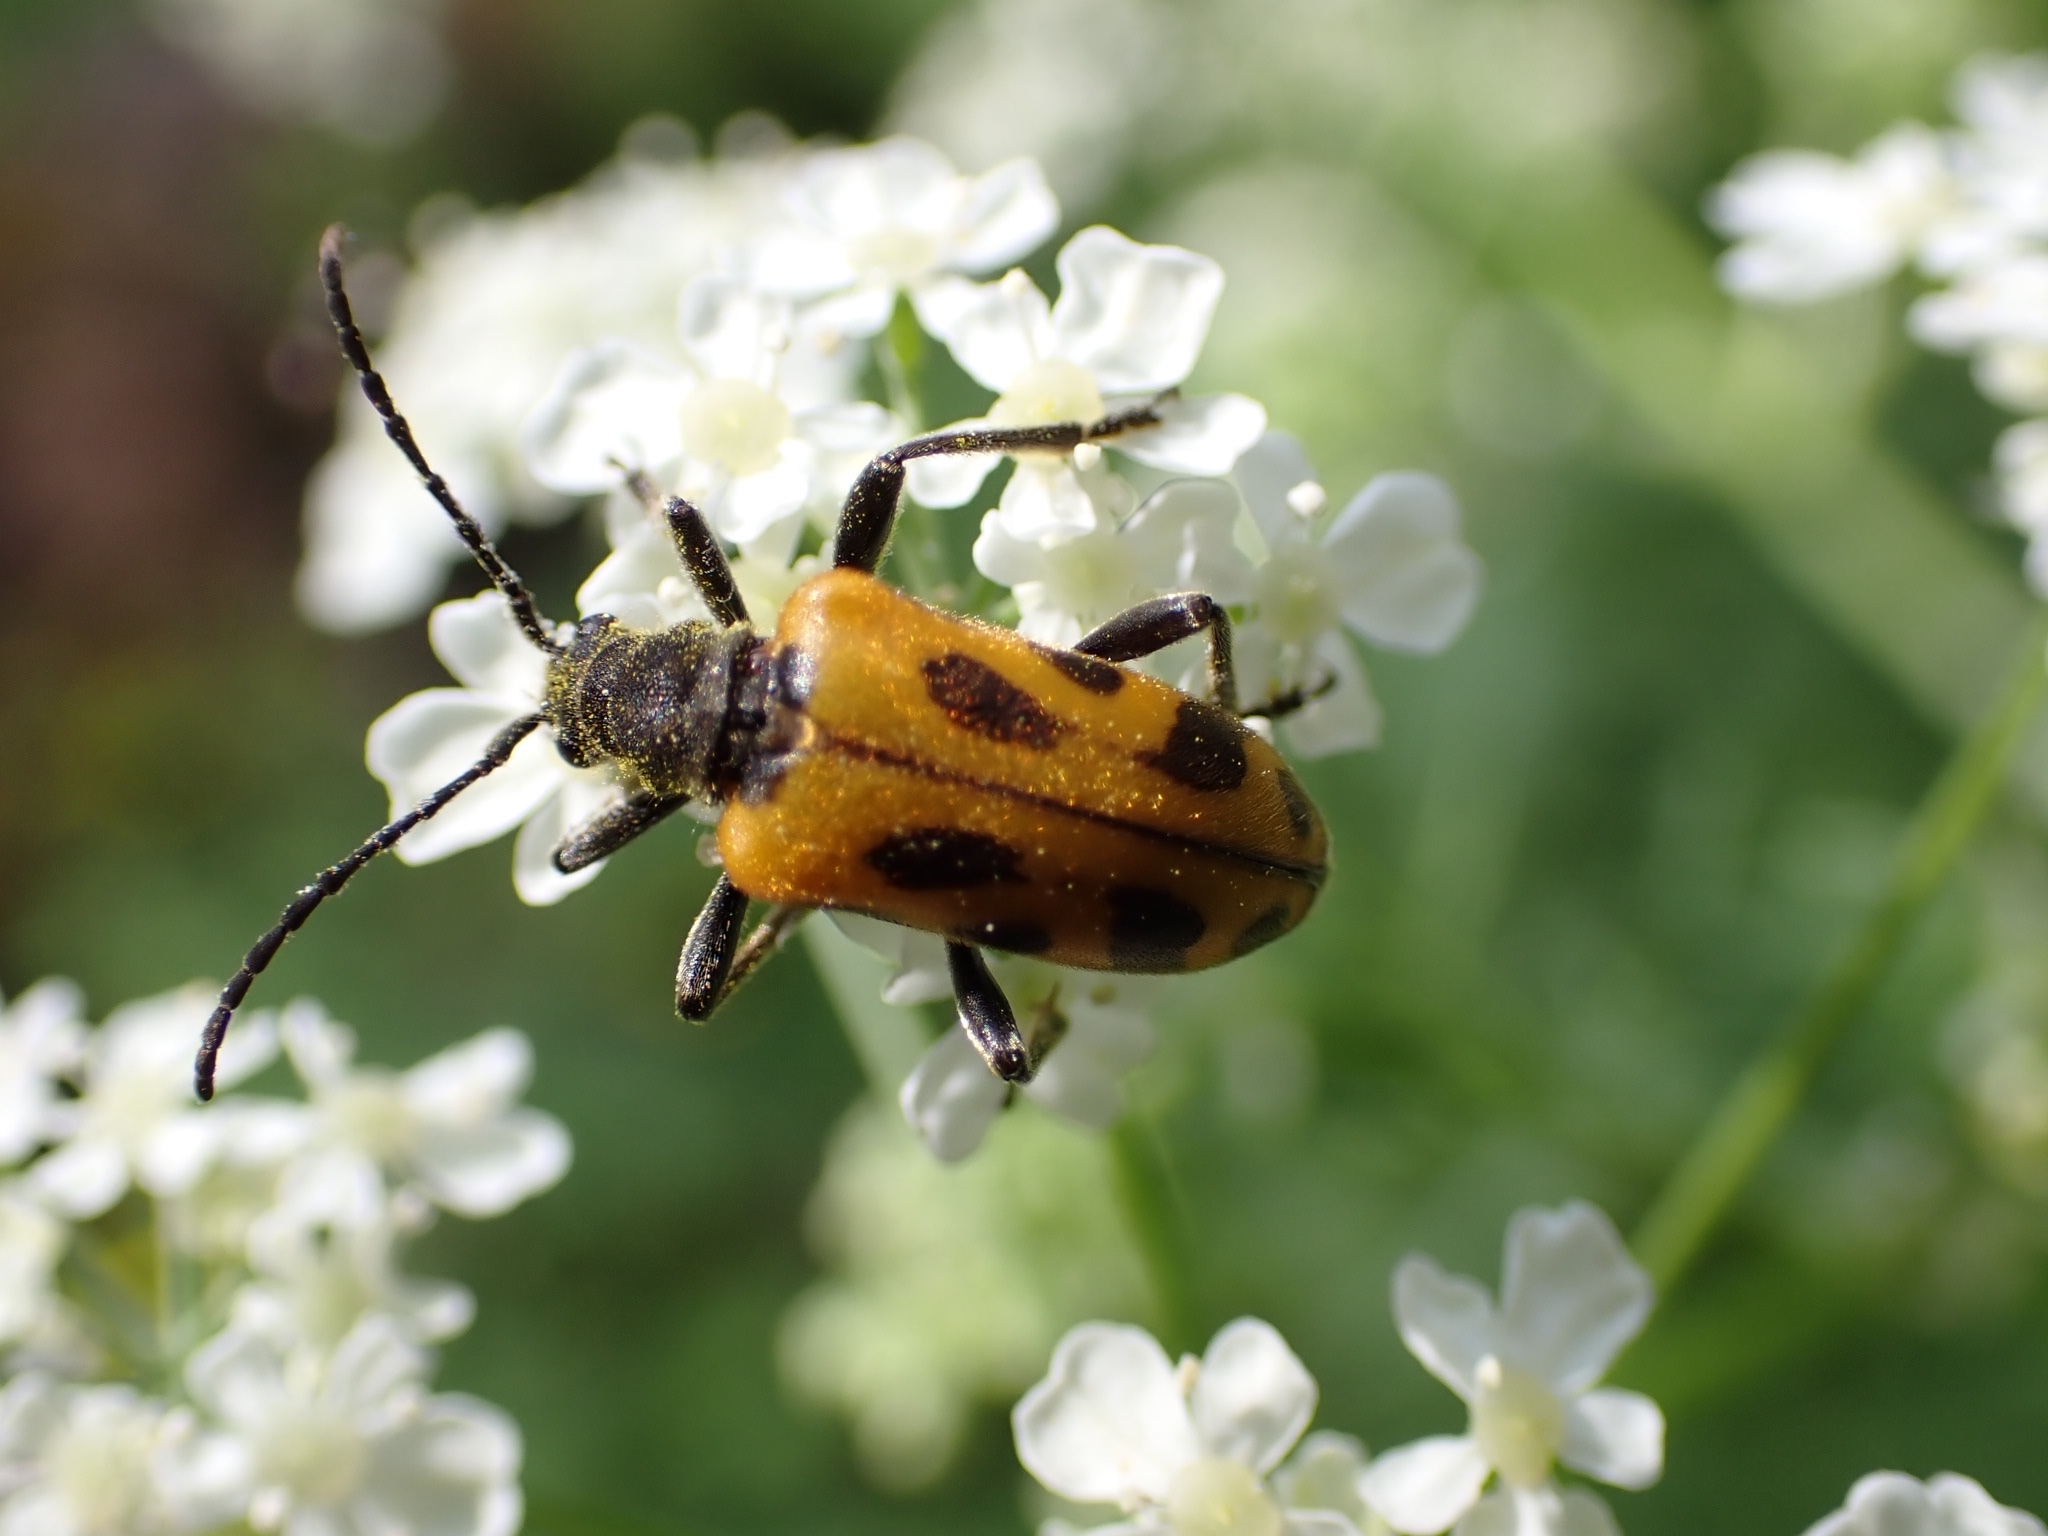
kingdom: Animalia
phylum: Arthropoda
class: Insecta
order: Coleoptera
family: Cerambycidae
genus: Brachyta
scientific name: Brachyta interrogationis
